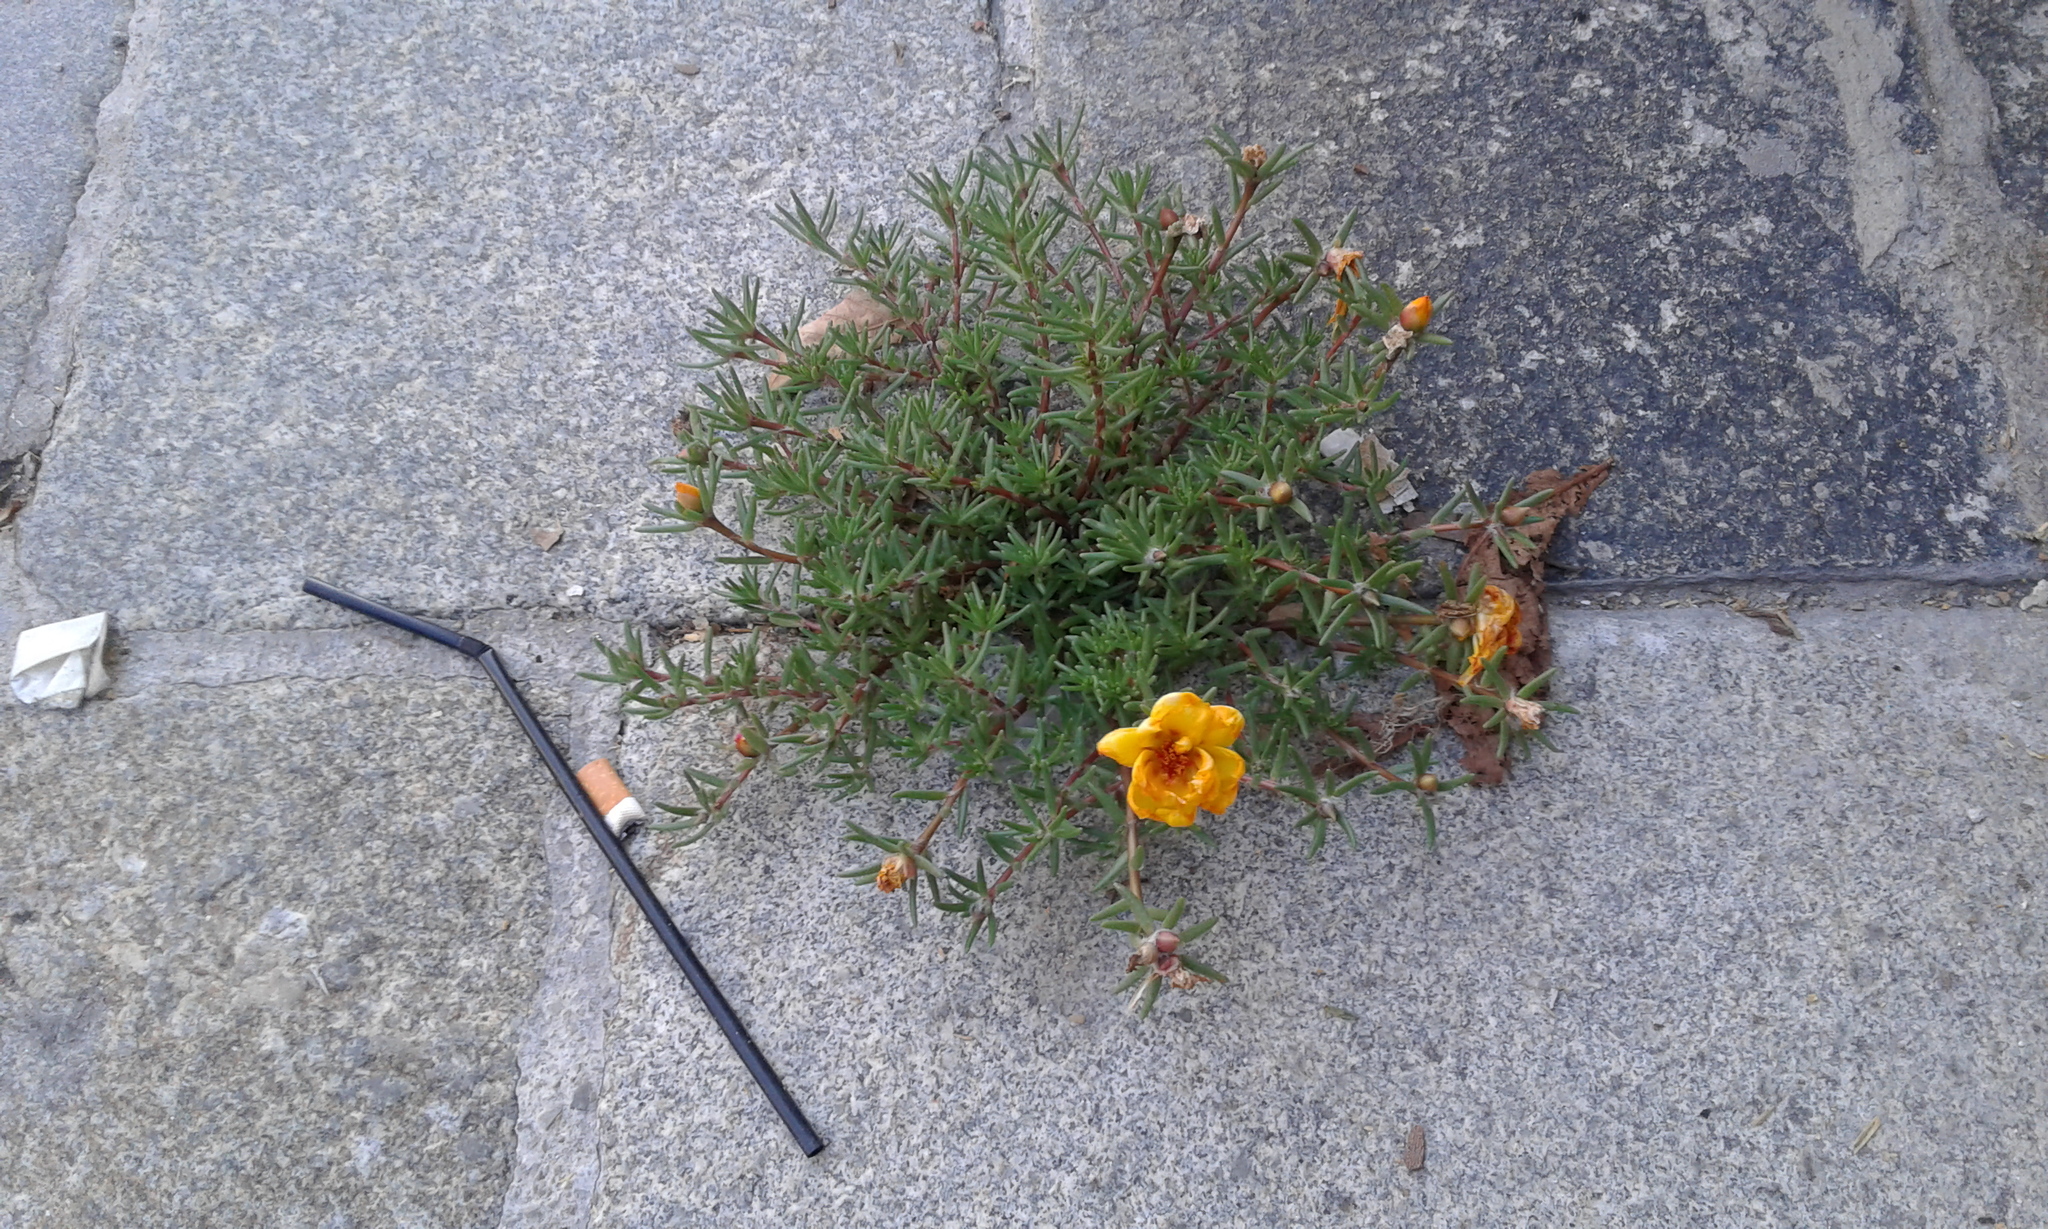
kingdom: Plantae
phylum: Tracheophyta
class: Magnoliopsida
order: Caryophyllales
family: Portulacaceae
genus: Portulaca
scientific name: Portulaca grandiflora
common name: Moss-rose
